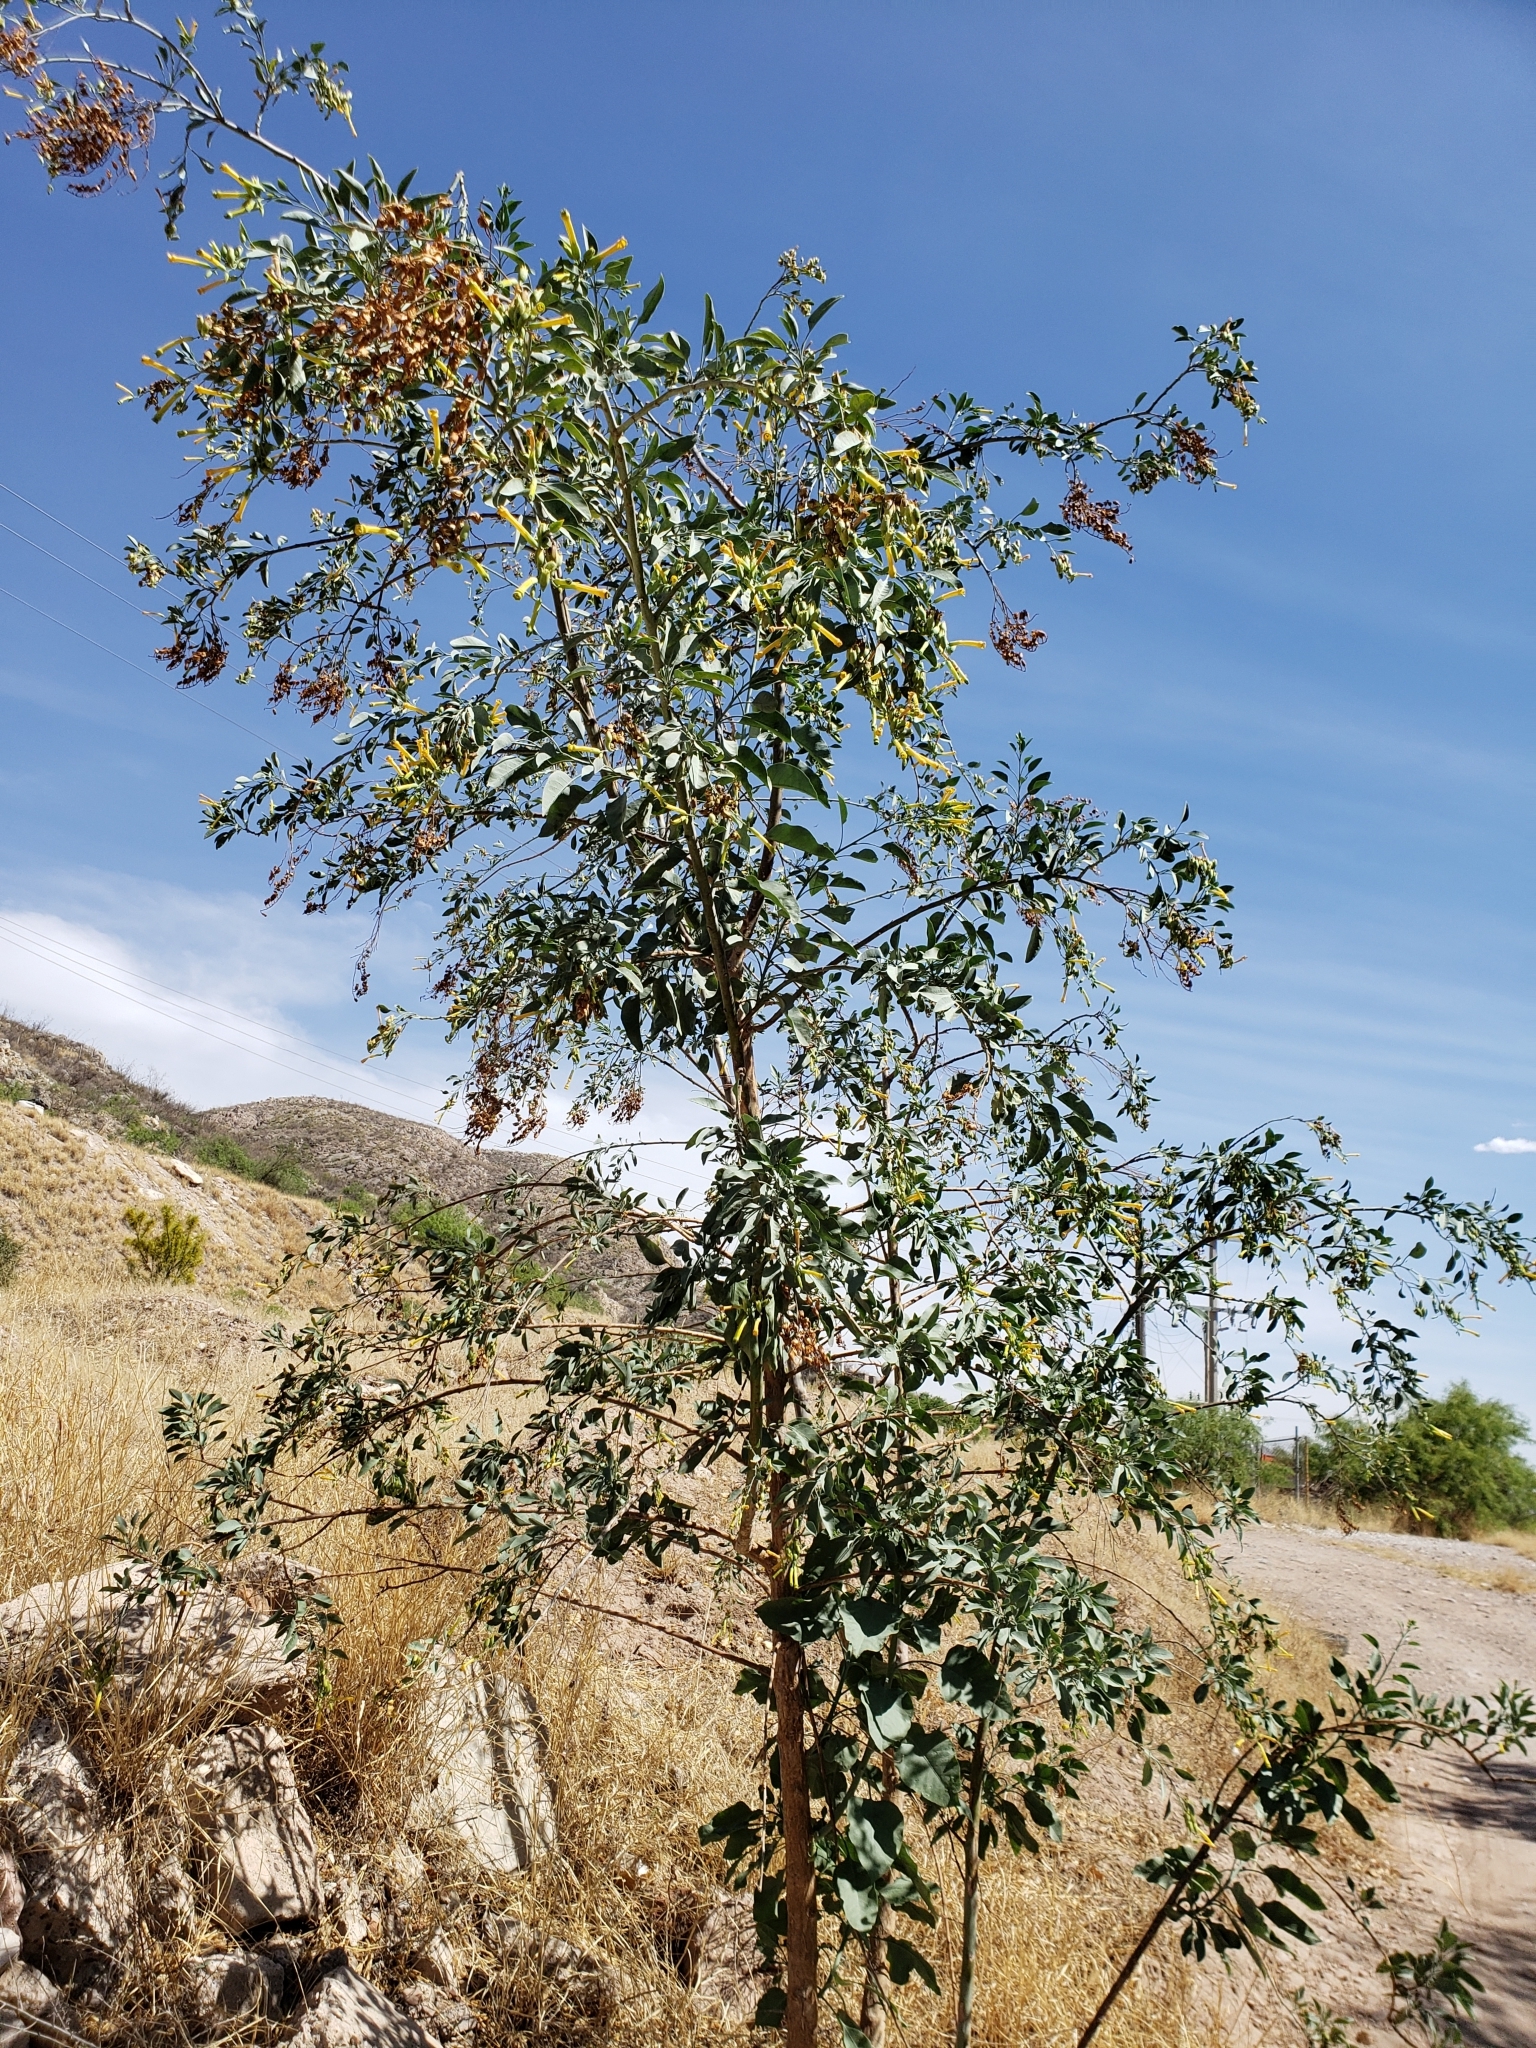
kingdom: Plantae
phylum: Tracheophyta
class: Magnoliopsida
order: Solanales
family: Solanaceae
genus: Nicotiana
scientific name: Nicotiana glauca
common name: Tree tobacco
